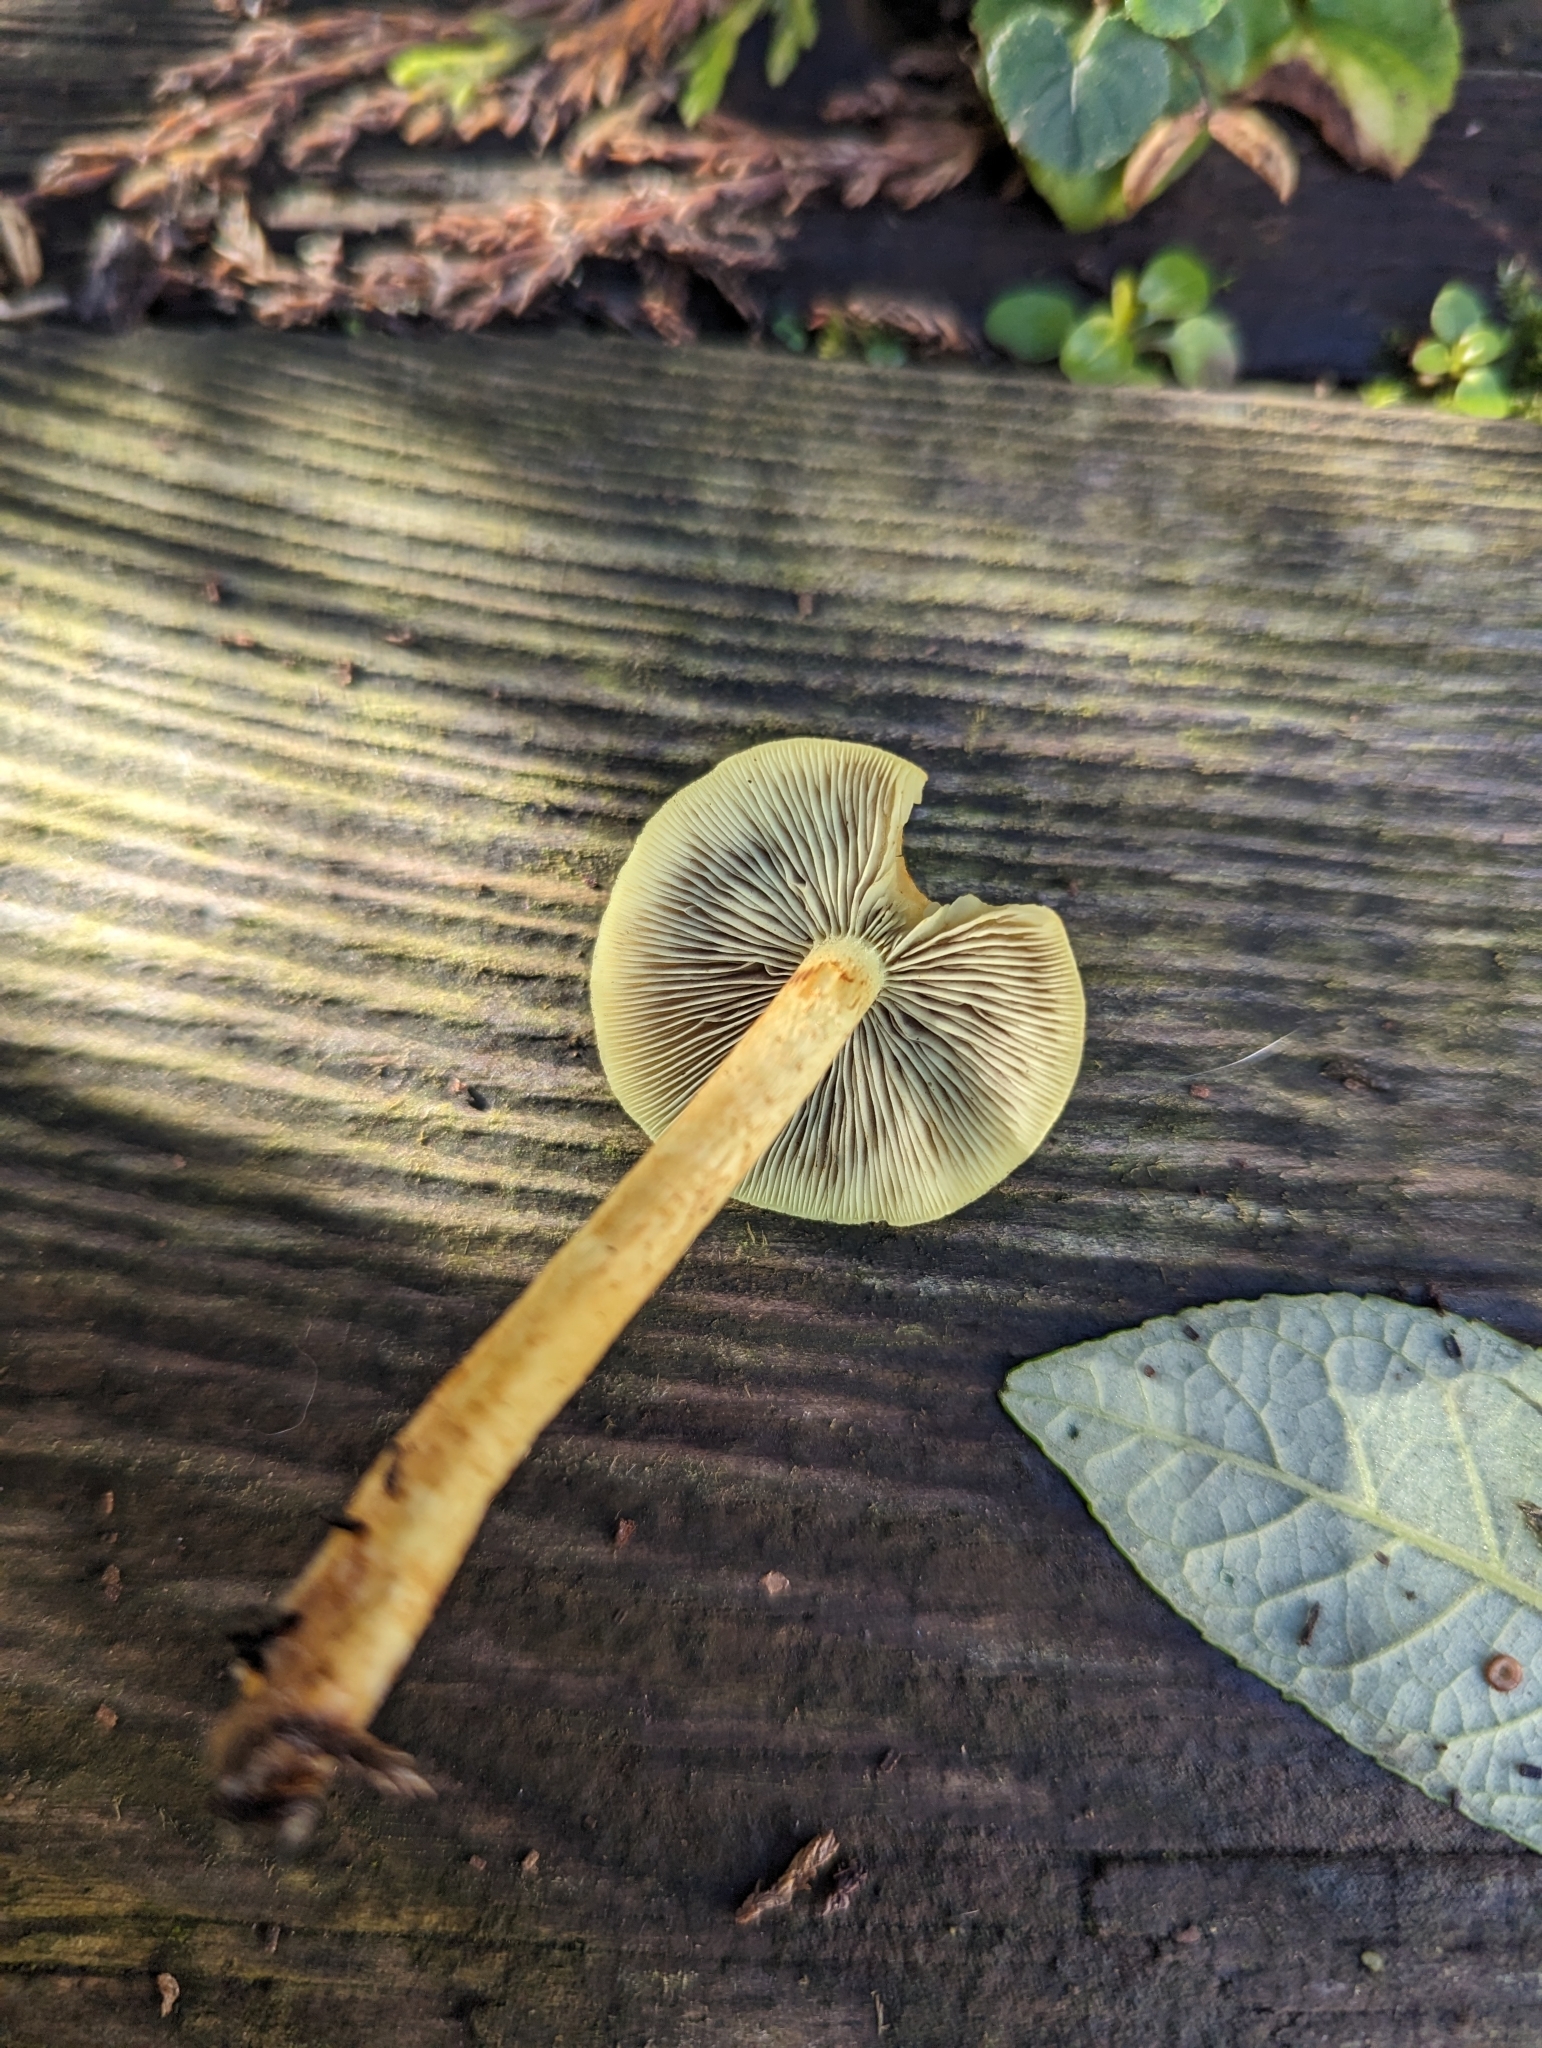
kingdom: Fungi
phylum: Basidiomycota
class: Agaricomycetes
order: Agaricales
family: Strophariaceae
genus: Hypholoma
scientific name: Hypholoma fasciculare
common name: Sulphur tuft
